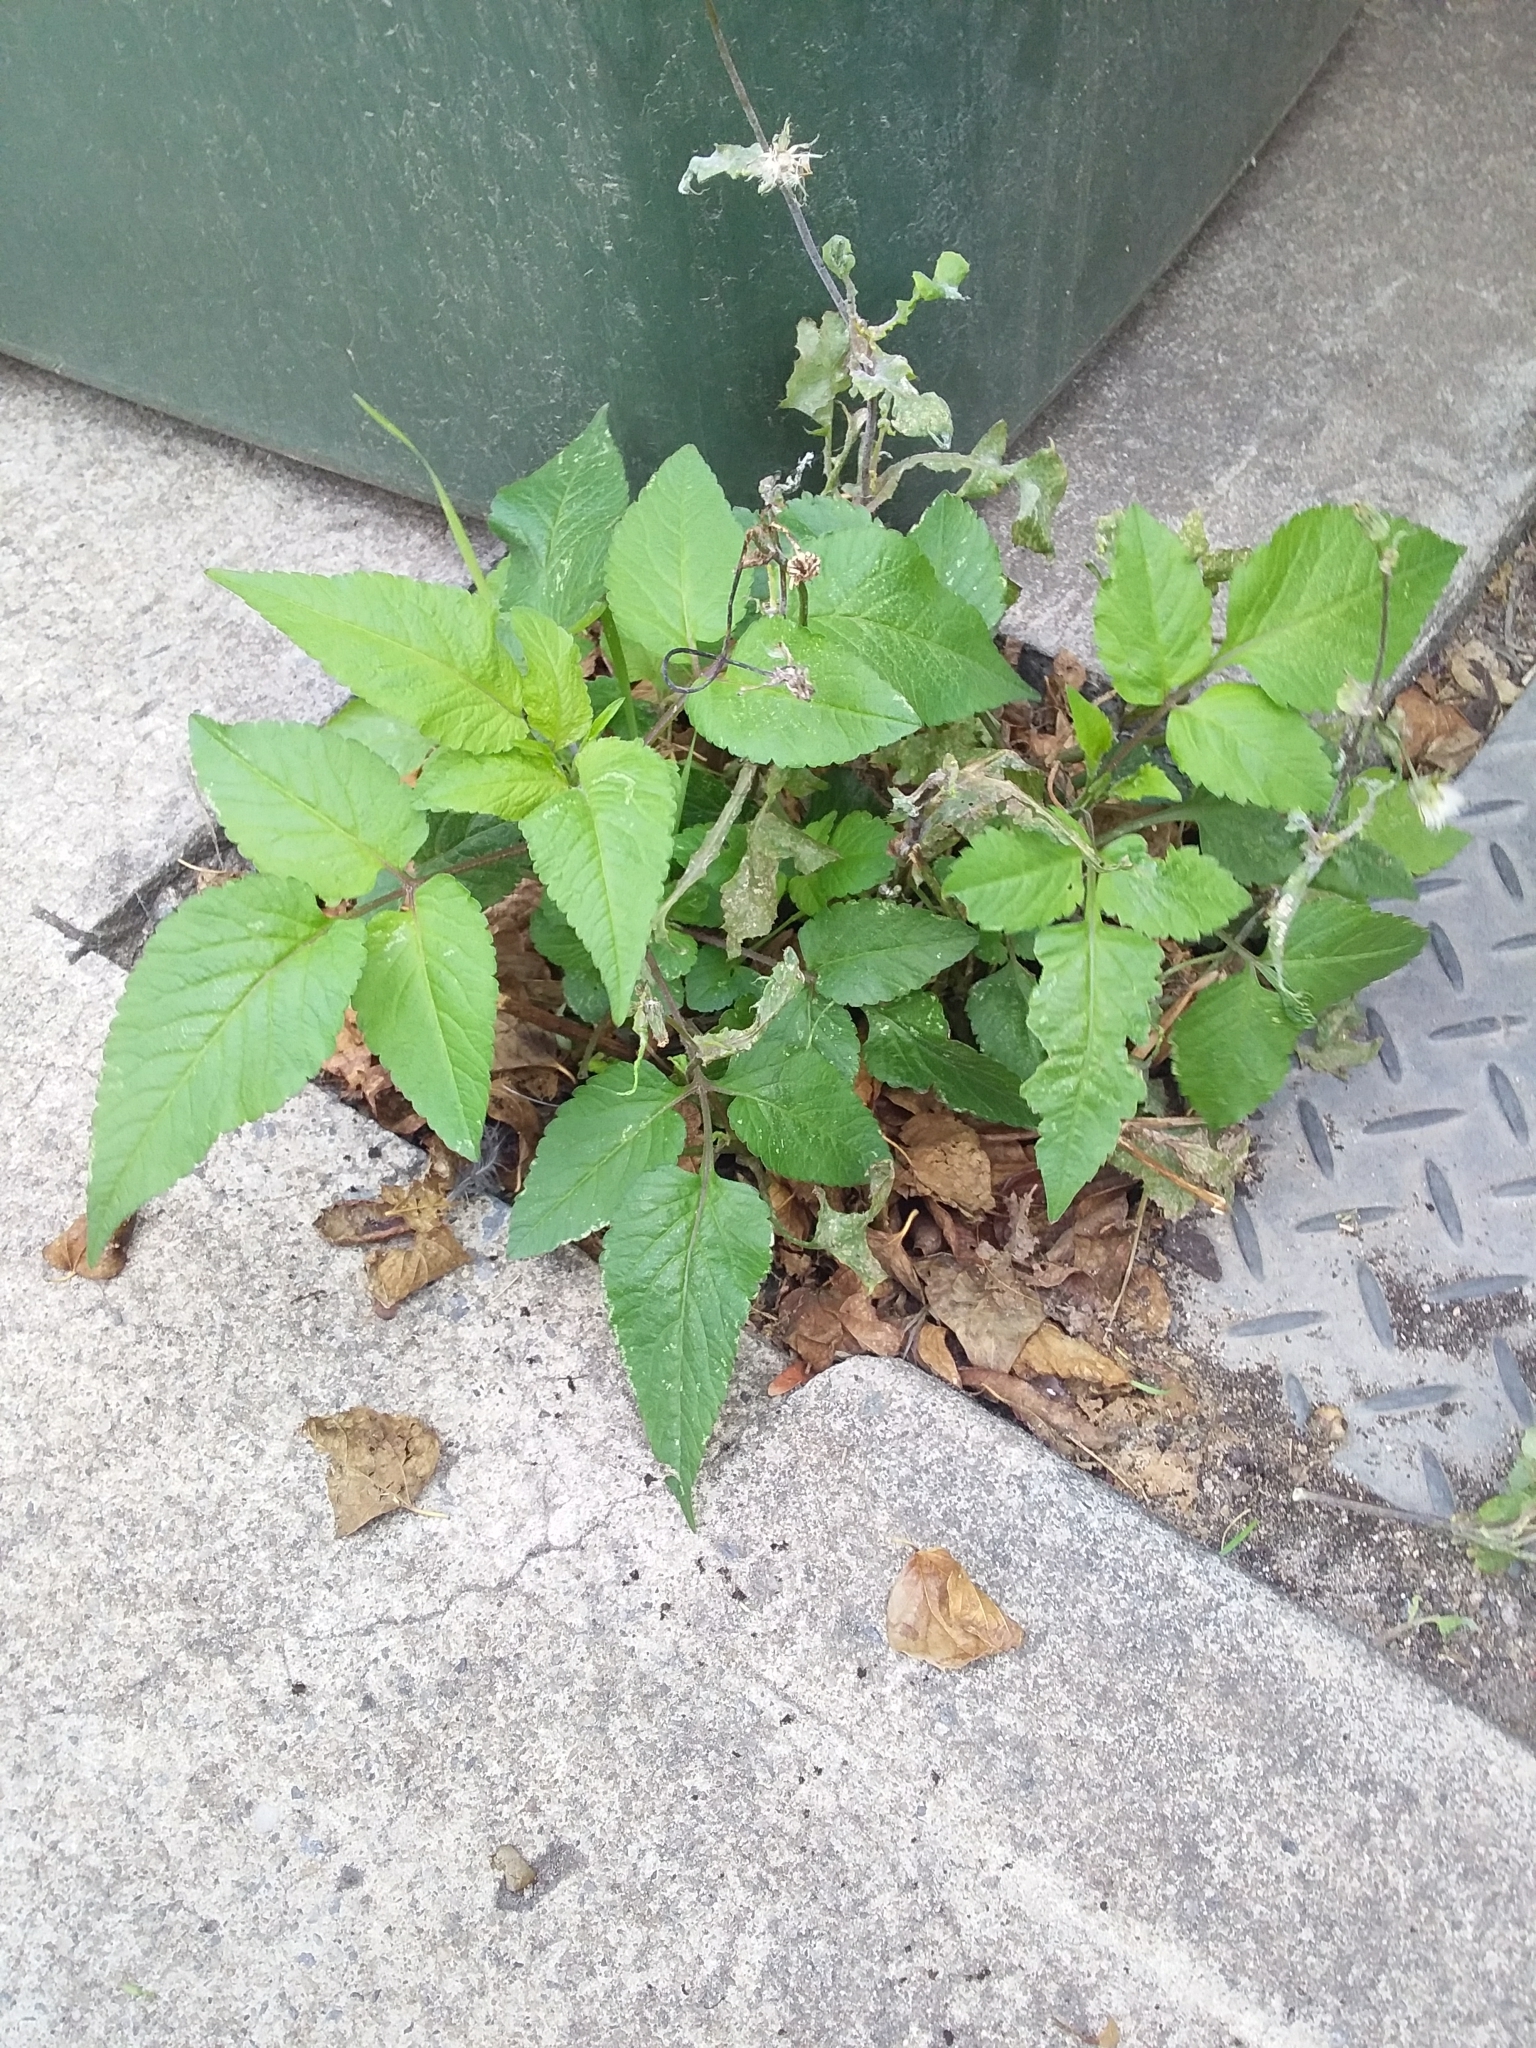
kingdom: Plantae
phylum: Tracheophyta
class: Magnoliopsida
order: Asterales
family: Asteraceae
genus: Bidens
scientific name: Bidens pilosa
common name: Black-jack
